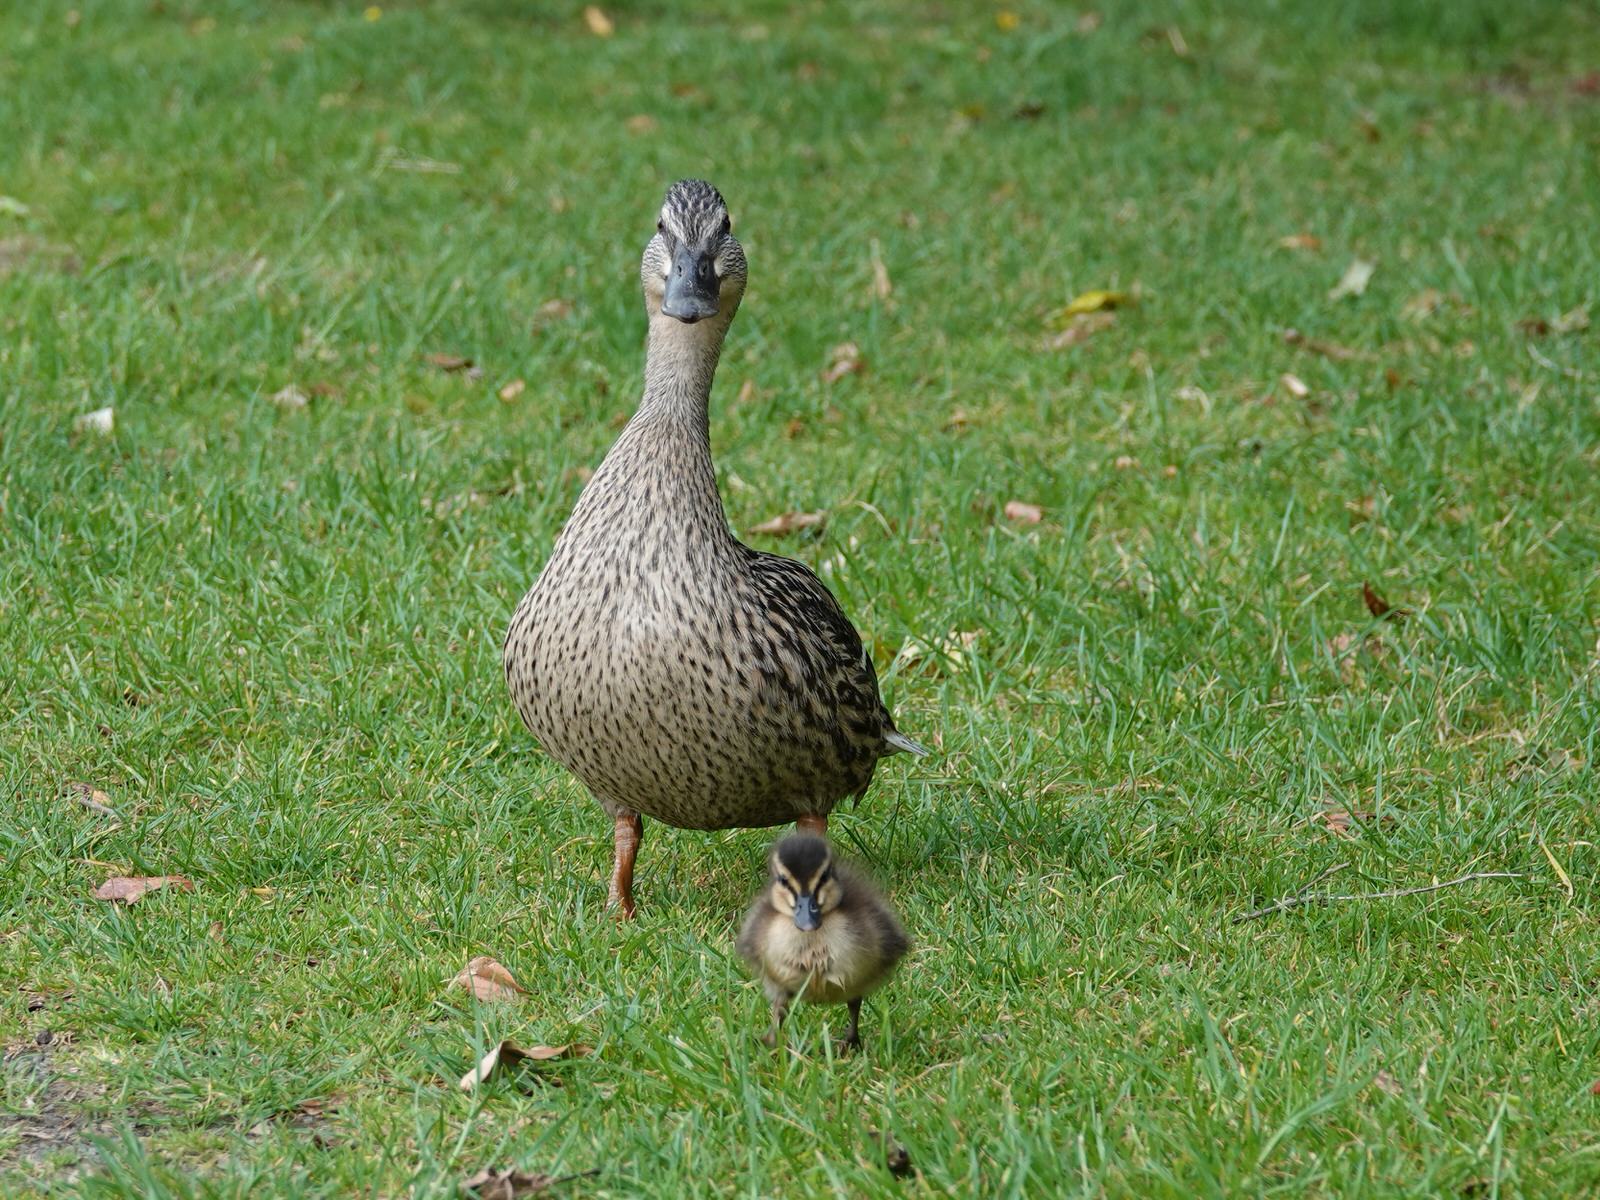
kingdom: Animalia
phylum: Chordata
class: Aves
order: Anseriformes
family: Anatidae
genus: Anas
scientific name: Anas
